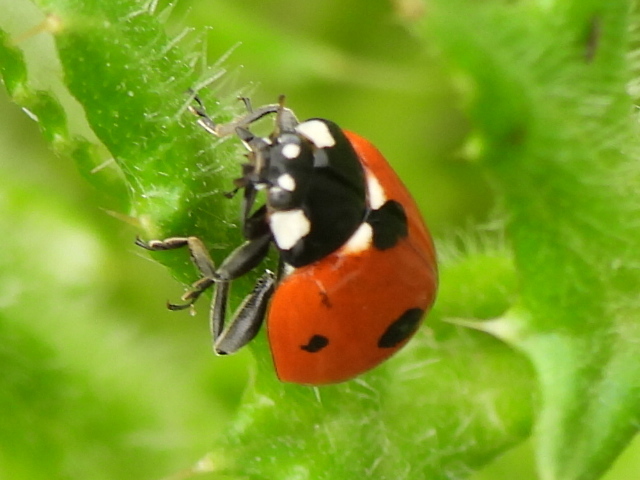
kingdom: Animalia
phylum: Arthropoda
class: Insecta
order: Coleoptera
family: Coccinellidae
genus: Coccinella
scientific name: Coccinella septempunctata
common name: Sevenspotted lady beetle
